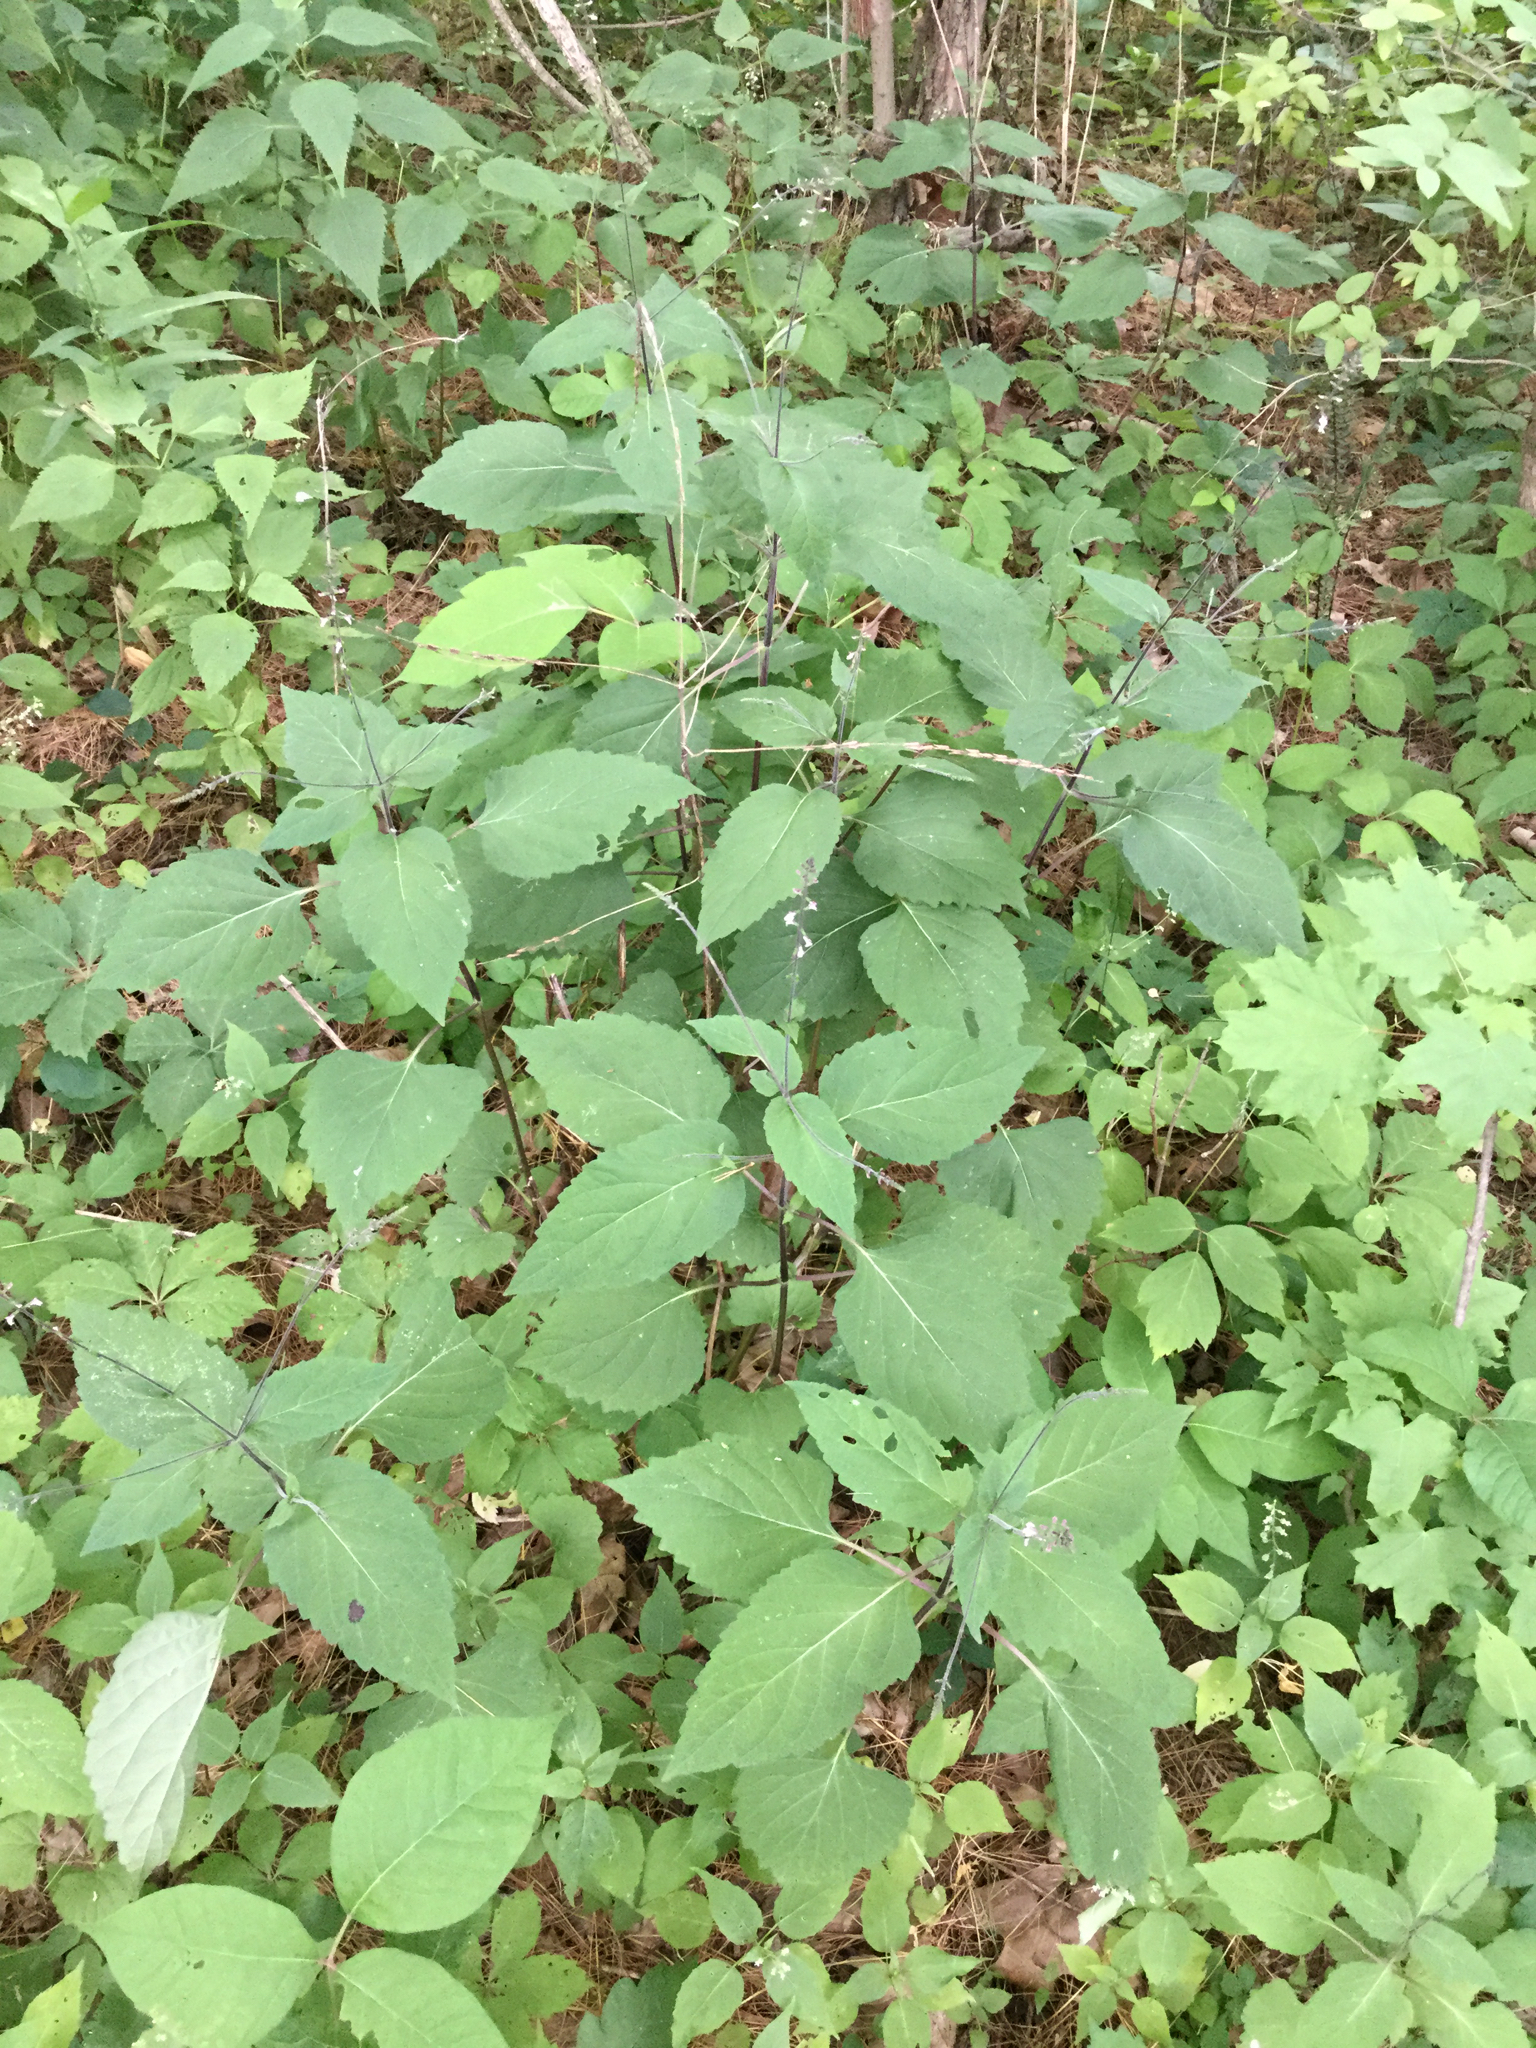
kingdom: Plantae
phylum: Tracheophyta
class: Magnoliopsida
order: Lamiales
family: Phrymaceae
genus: Phryma
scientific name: Phryma leptostachya
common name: American lopseed
